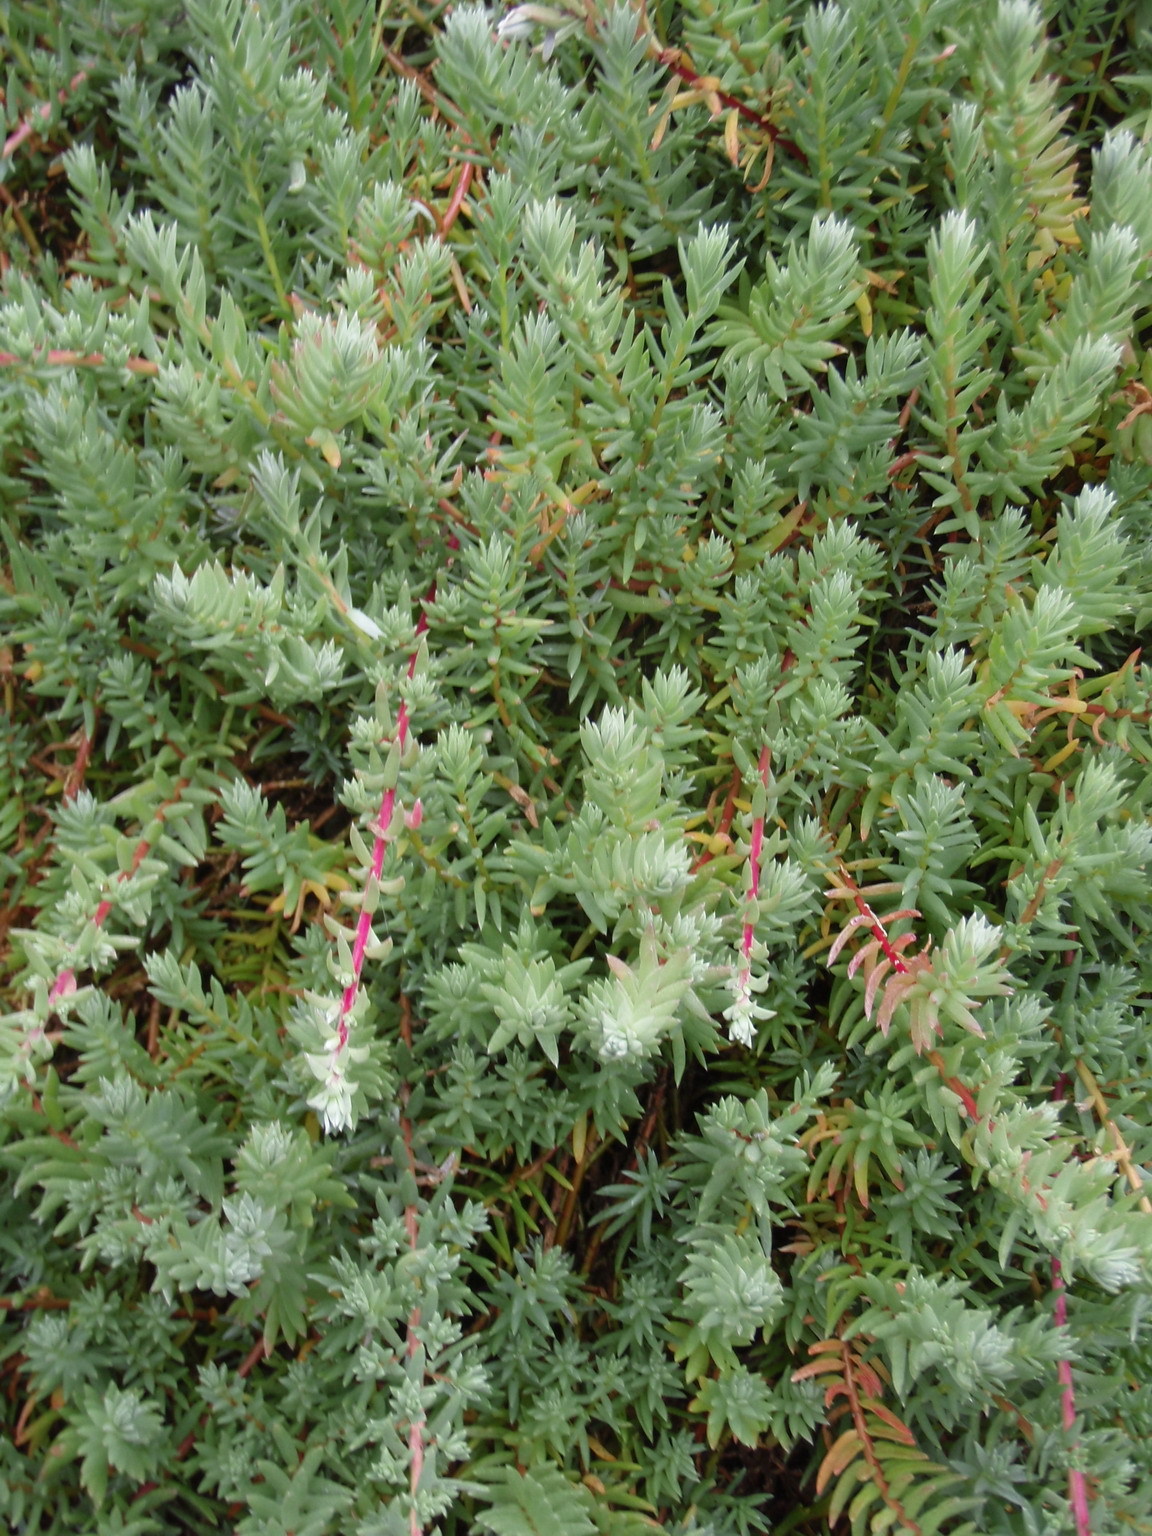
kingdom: Plantae
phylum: Tracheophyta
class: Magnoliopsida
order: Caryophyllales
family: Amaranthaceae
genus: Chenolea
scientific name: Chenolea diffusa
